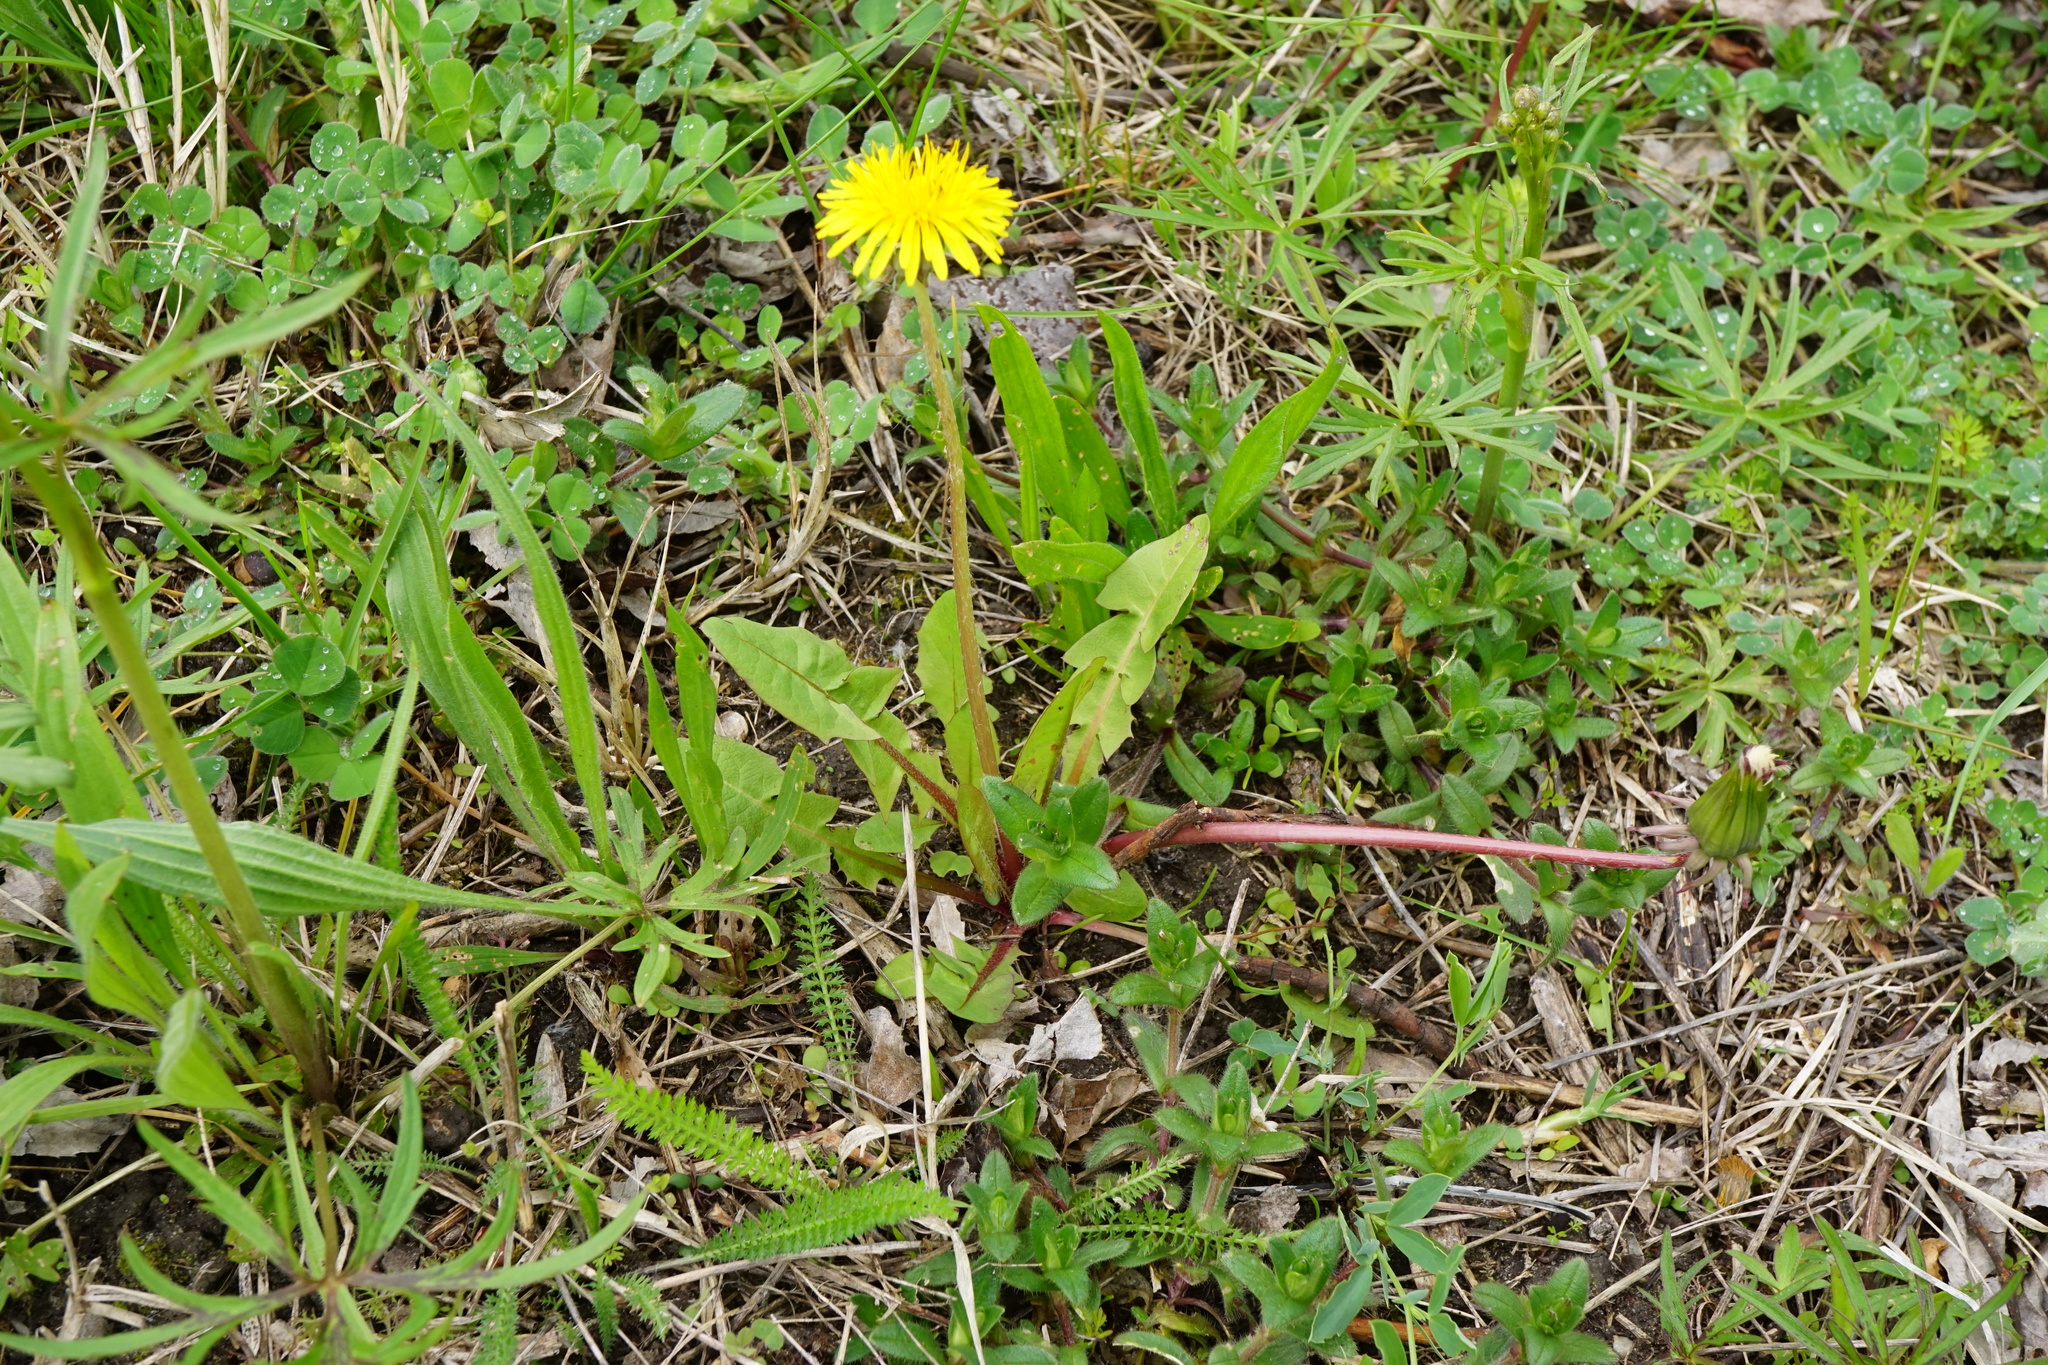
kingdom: Plantae
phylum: Tracheophyta
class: Magnoliopsida
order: Asterales
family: Asteraceae
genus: Taraxacum
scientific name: Taraxacum
